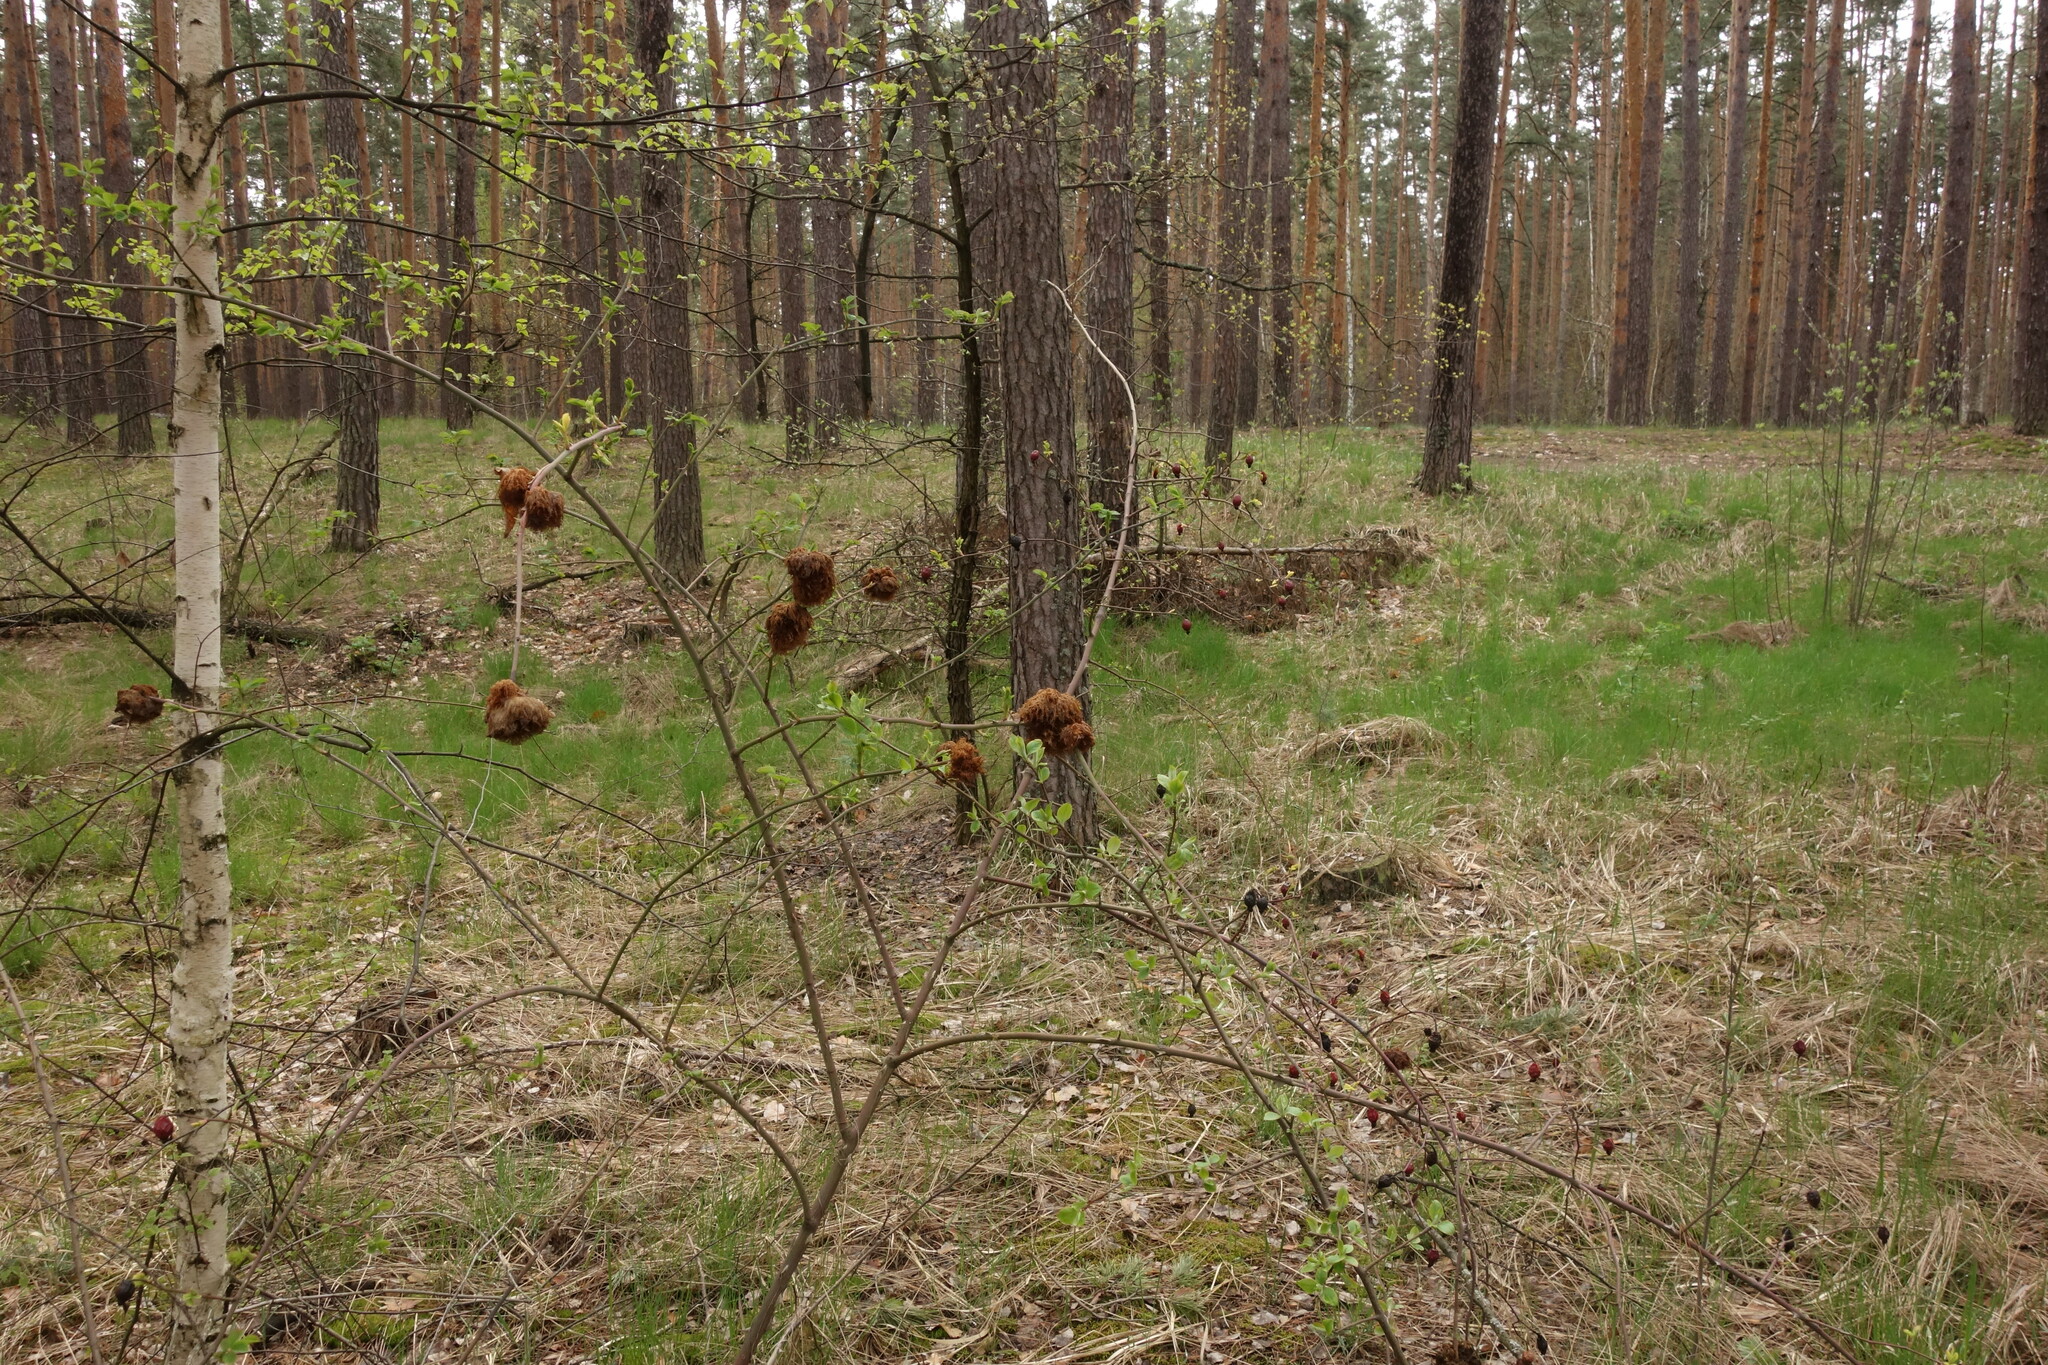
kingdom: Animalia
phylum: Arthropoda
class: Insecta
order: Hymenoptera
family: Cynipidae
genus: Diplolepis
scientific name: Diplolepis rosae
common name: Bedeguar gall
